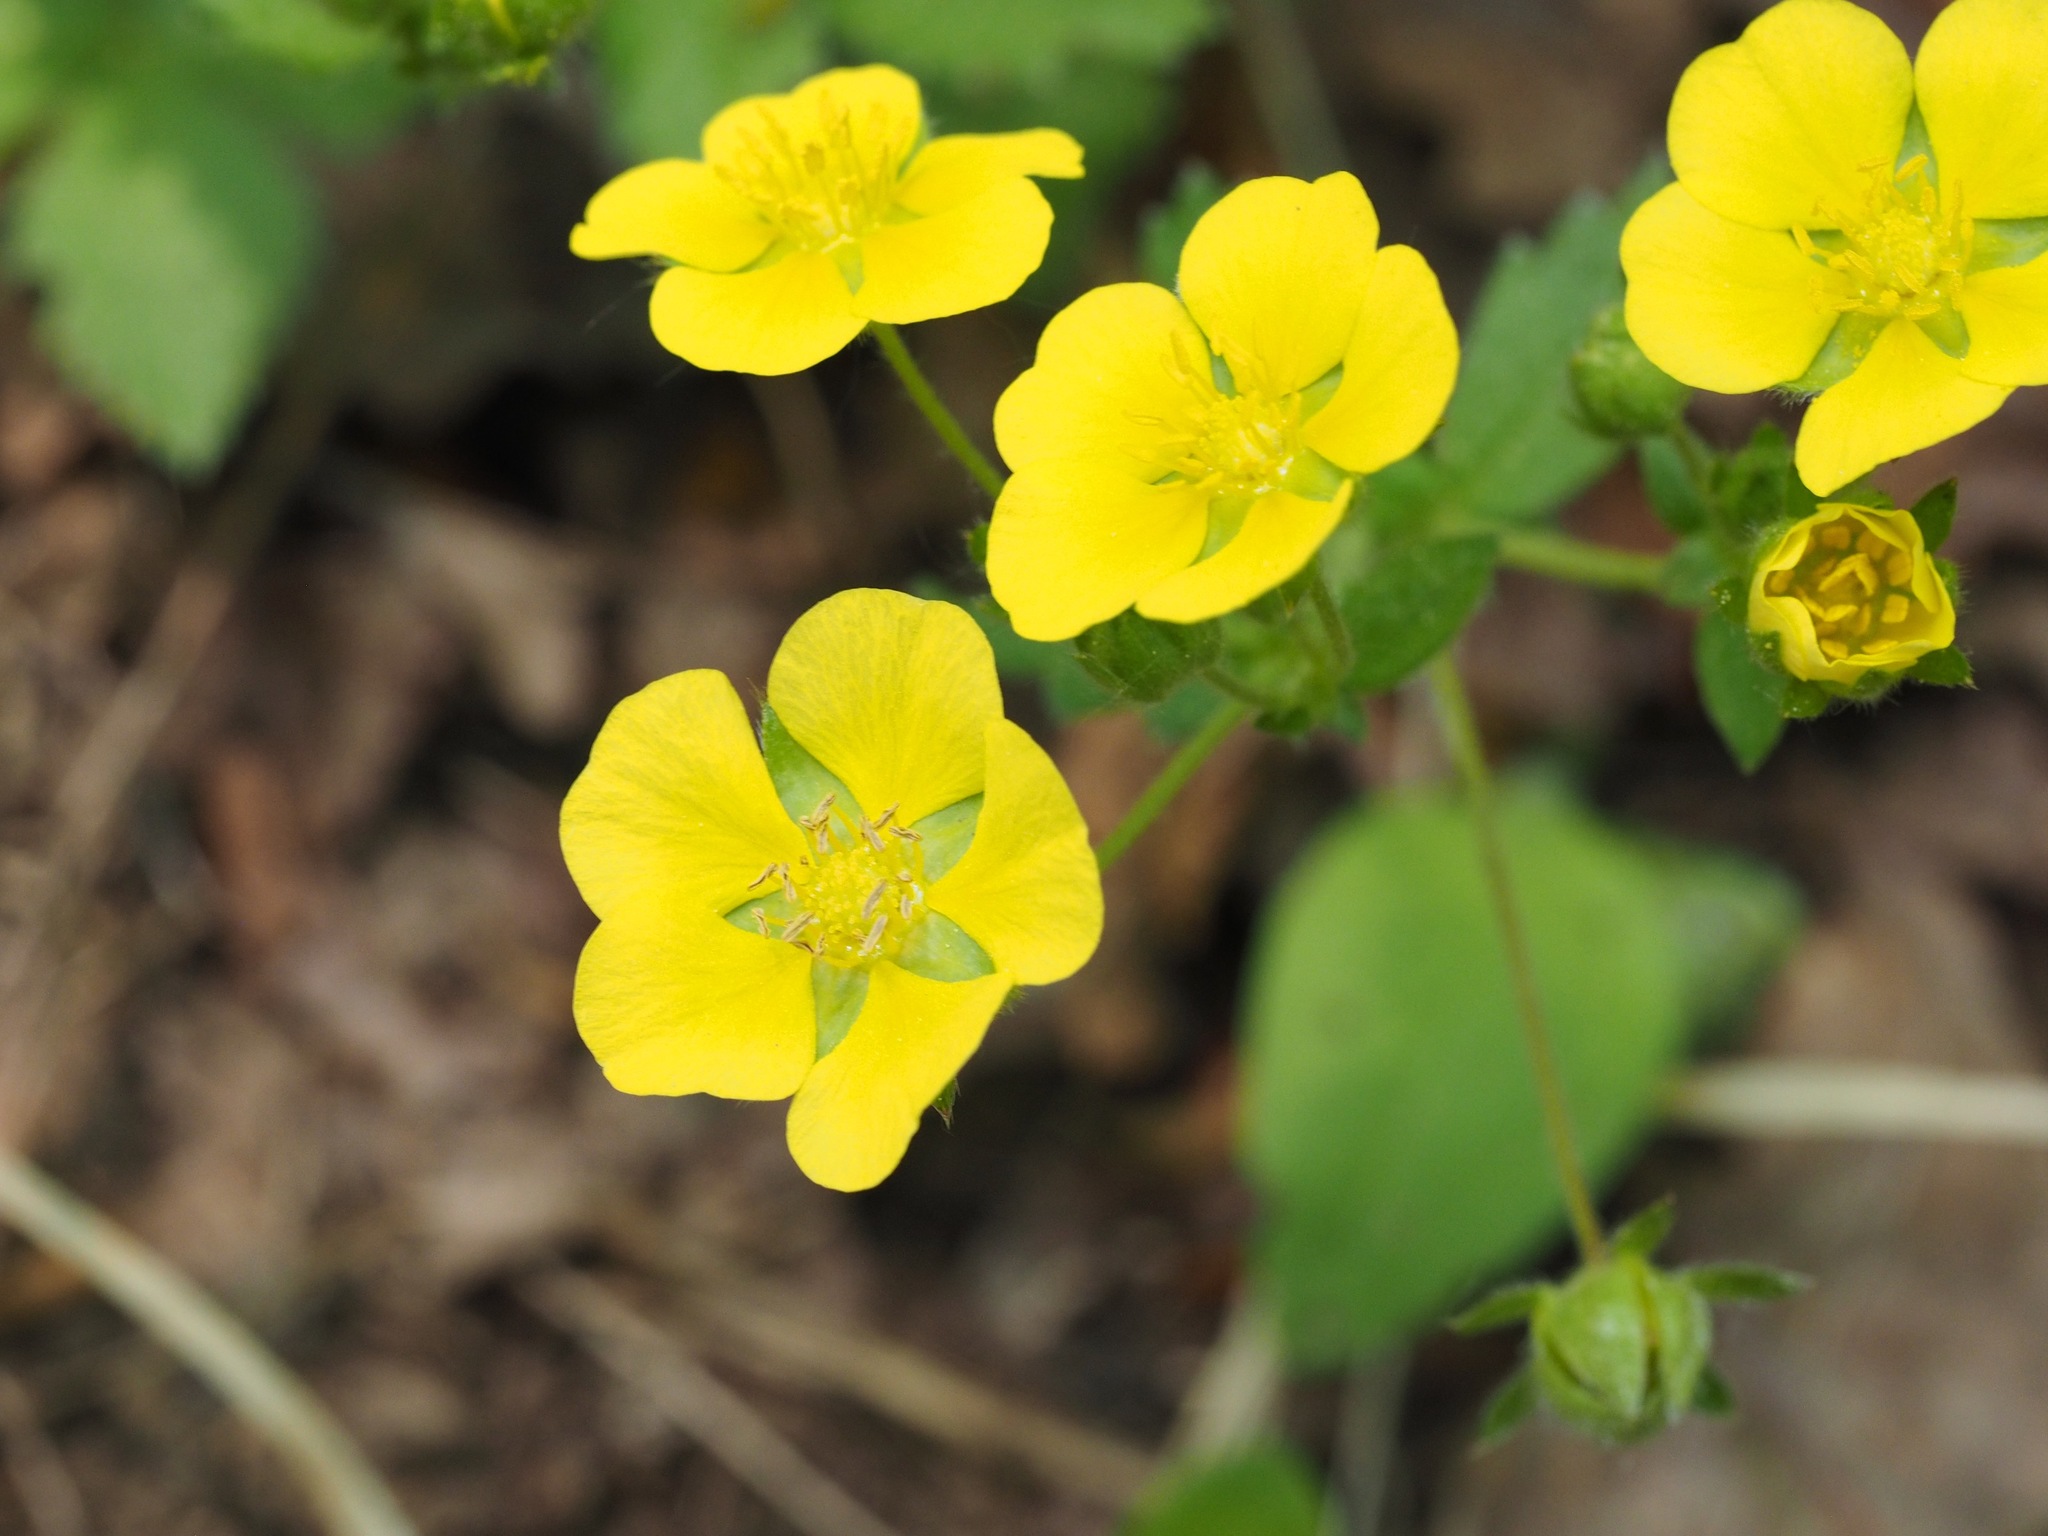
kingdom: Plantae
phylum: Tracheophyta
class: Magnoliopsida
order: Rosales
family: Rosaceae
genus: Potentilla
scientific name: Potentilla stolonifera
